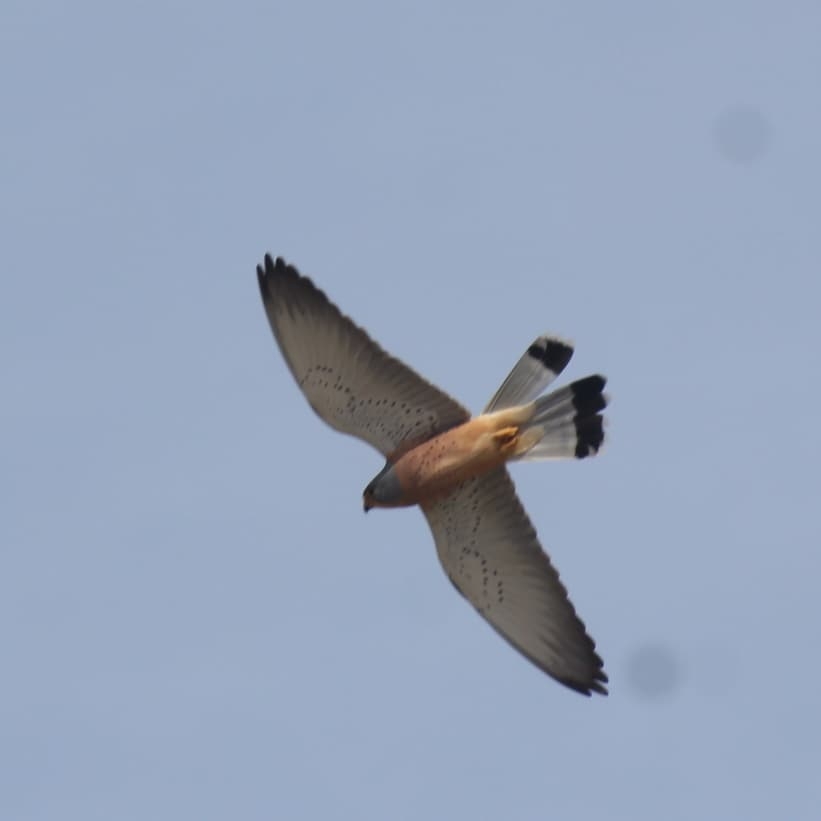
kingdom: Animalia
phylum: Chordata
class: Aves
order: Falconiformes
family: Falconidae
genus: Falco
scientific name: Falco naumanni
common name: Lesser kestrel
